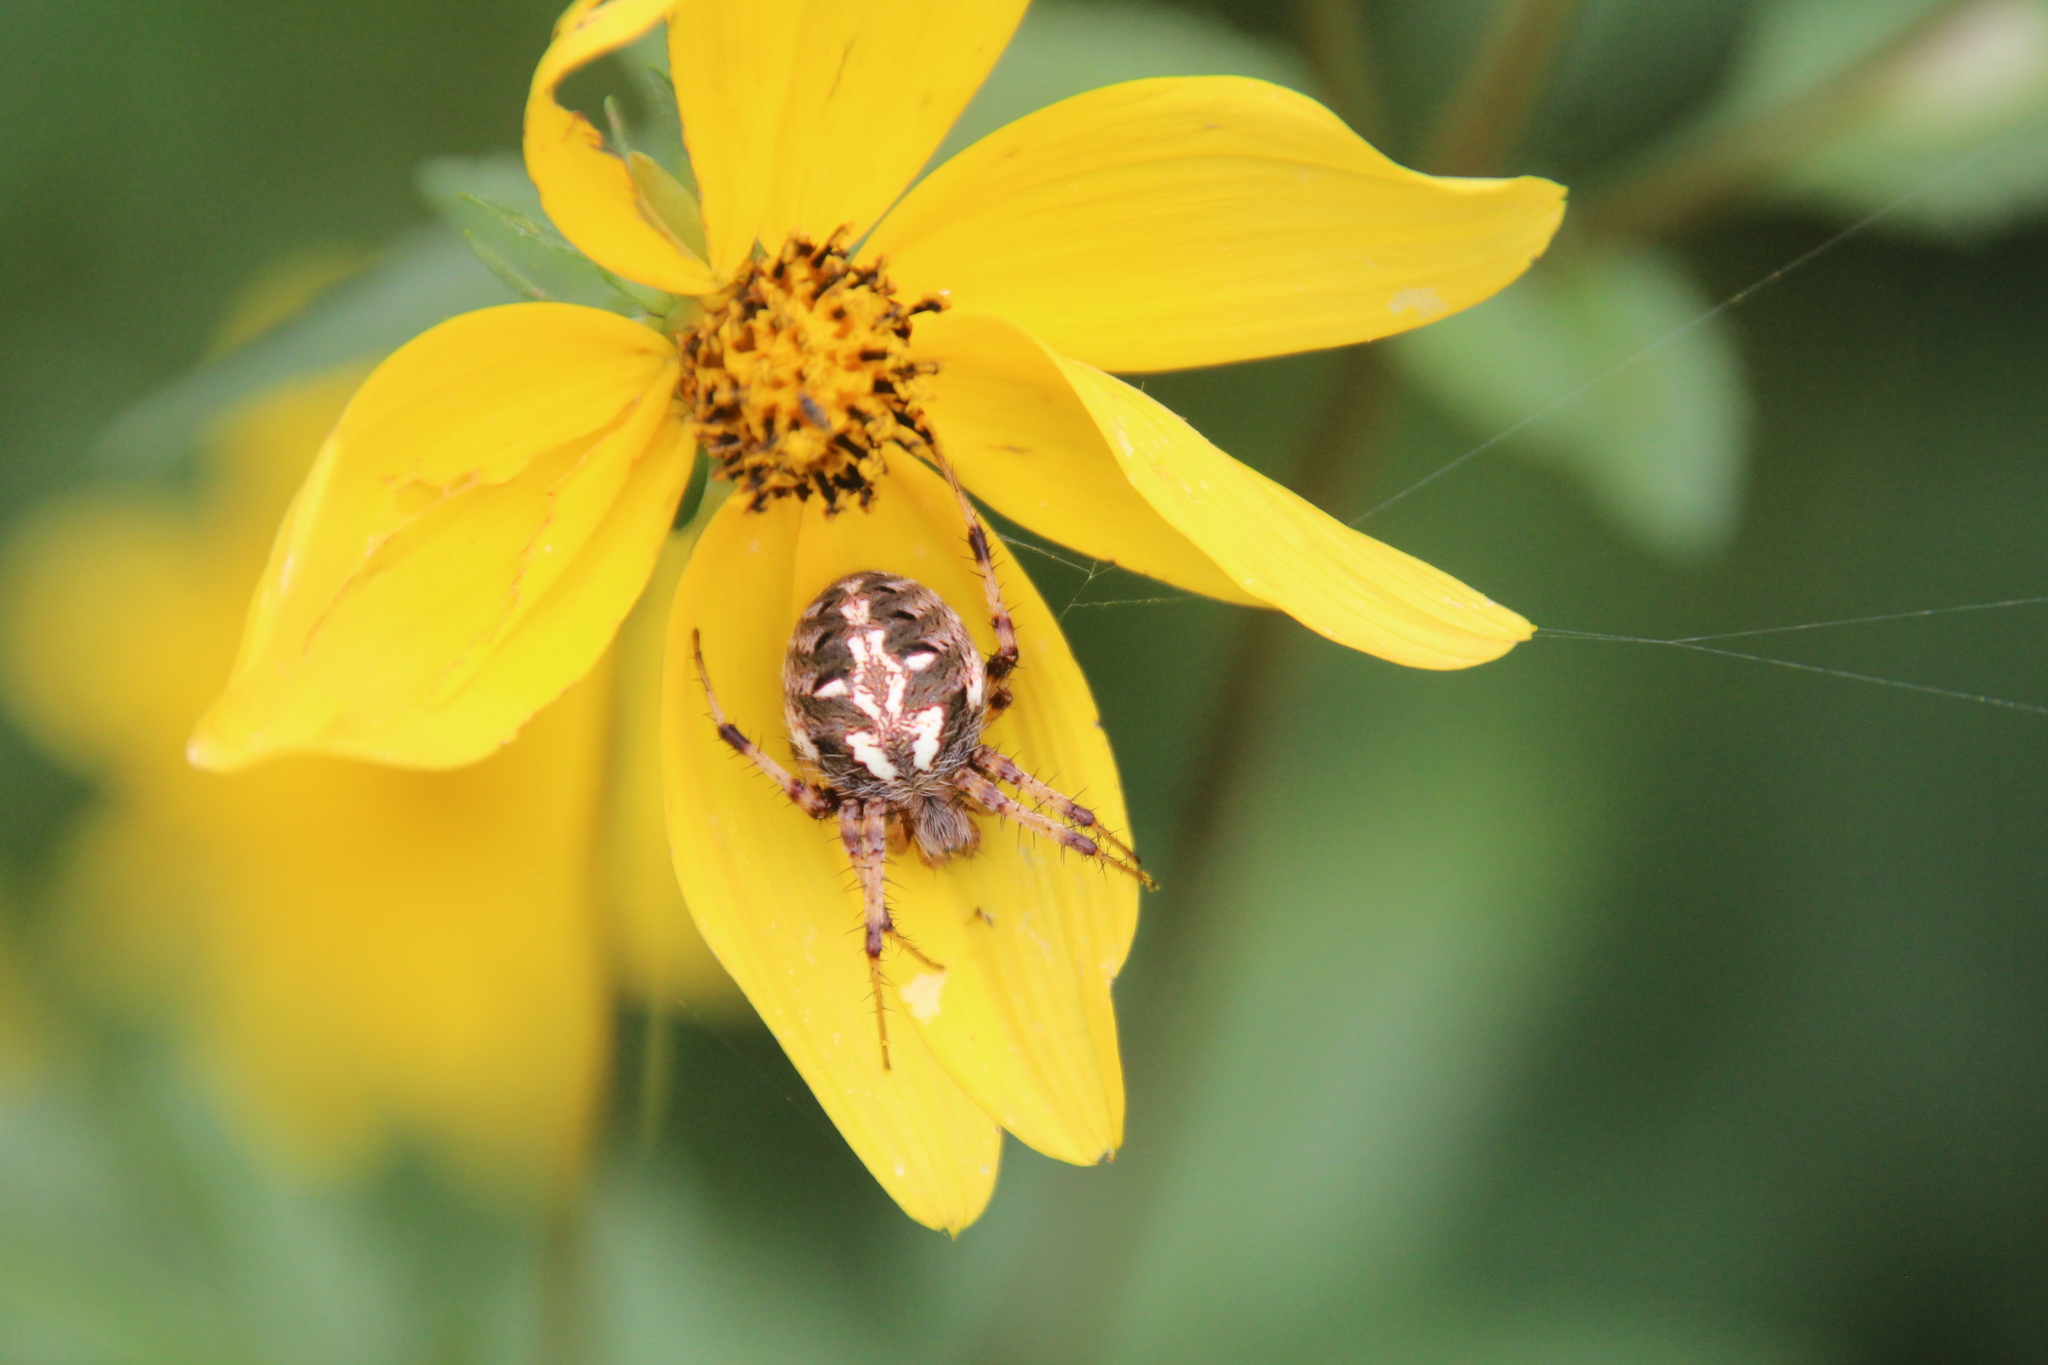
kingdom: Animalia
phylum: Arthropoda
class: Arachnida
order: Araneae
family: Araneidae
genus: Neoscona
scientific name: Neoscona arabesca
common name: Orb weavers
